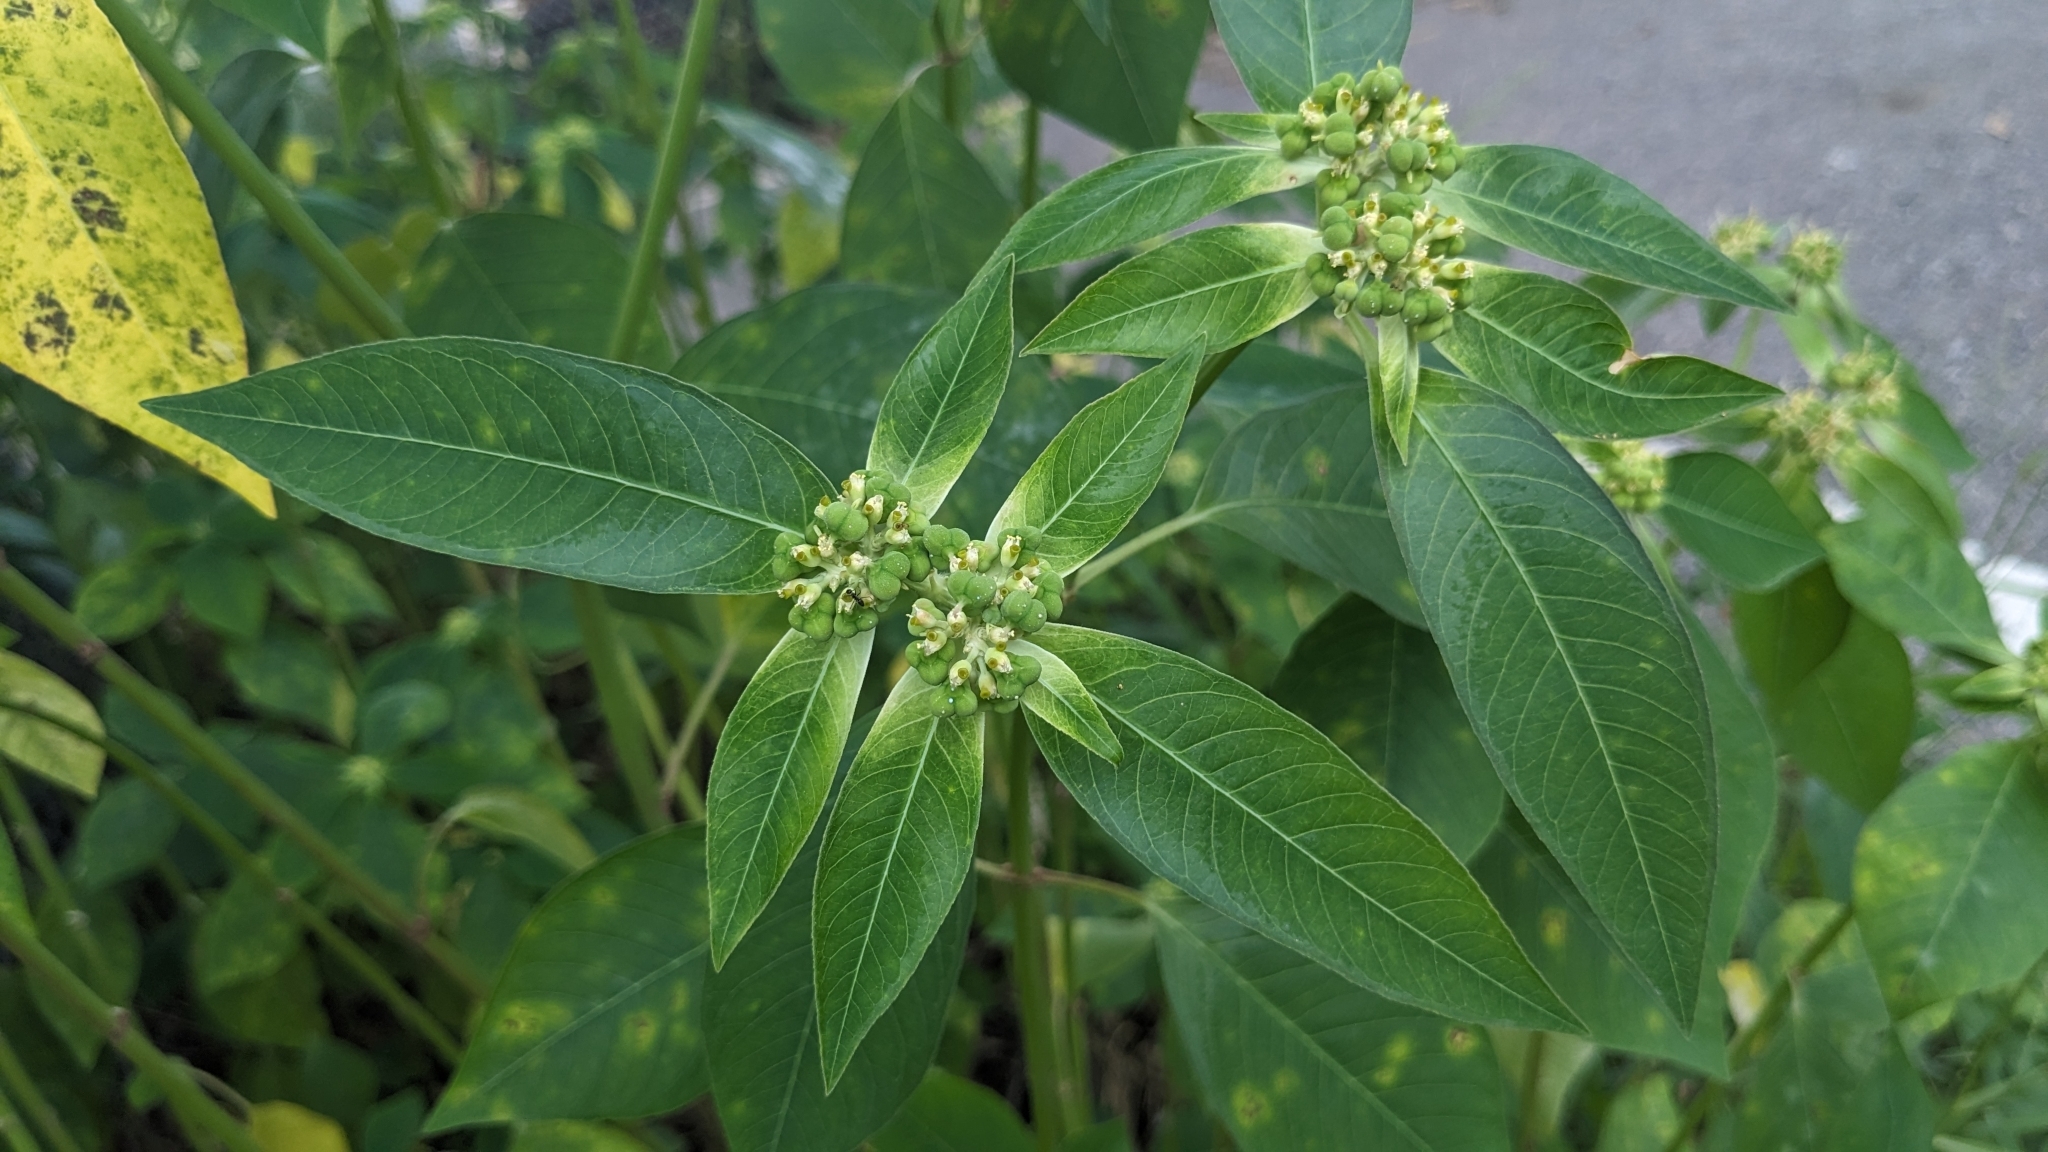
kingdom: Plantae
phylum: Tracheophyta
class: Magnoliopsida
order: Malpighiales
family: Euphorbiaceae
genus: Euphorbia
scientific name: Euphorbia heterophylla
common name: Mexican fireplant
